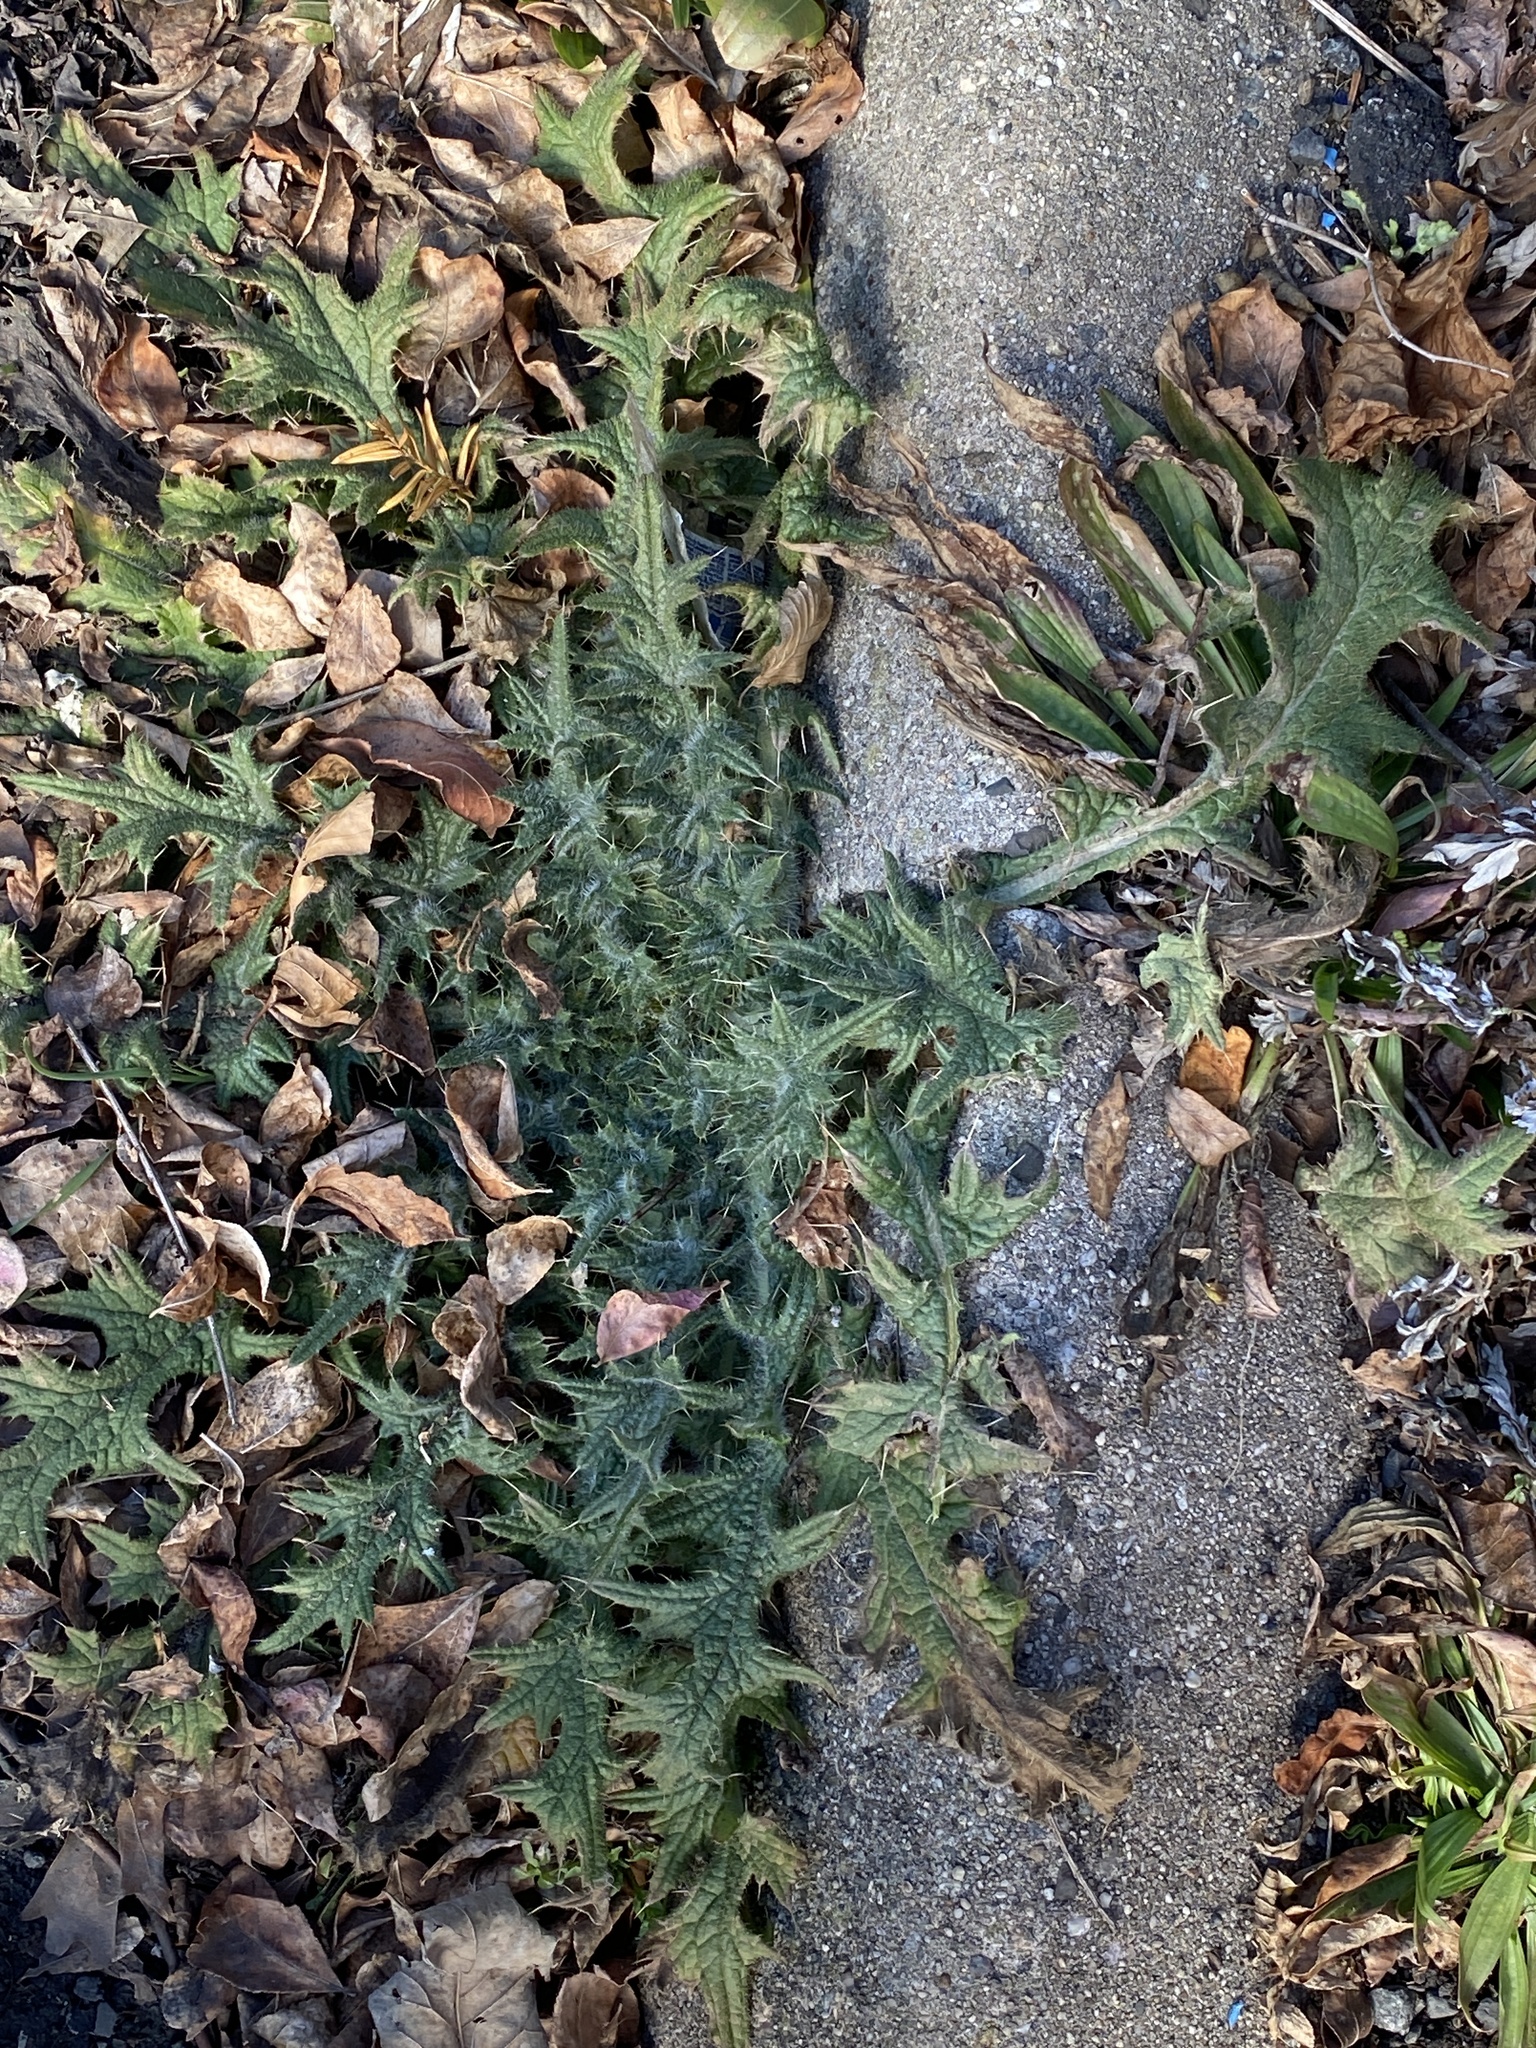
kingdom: Plantae
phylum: Tracheophyta
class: Magnoliopsida
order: Asterales
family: Asteraceae
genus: Cirsium
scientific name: Cirsium vulgare
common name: Bull thistle
